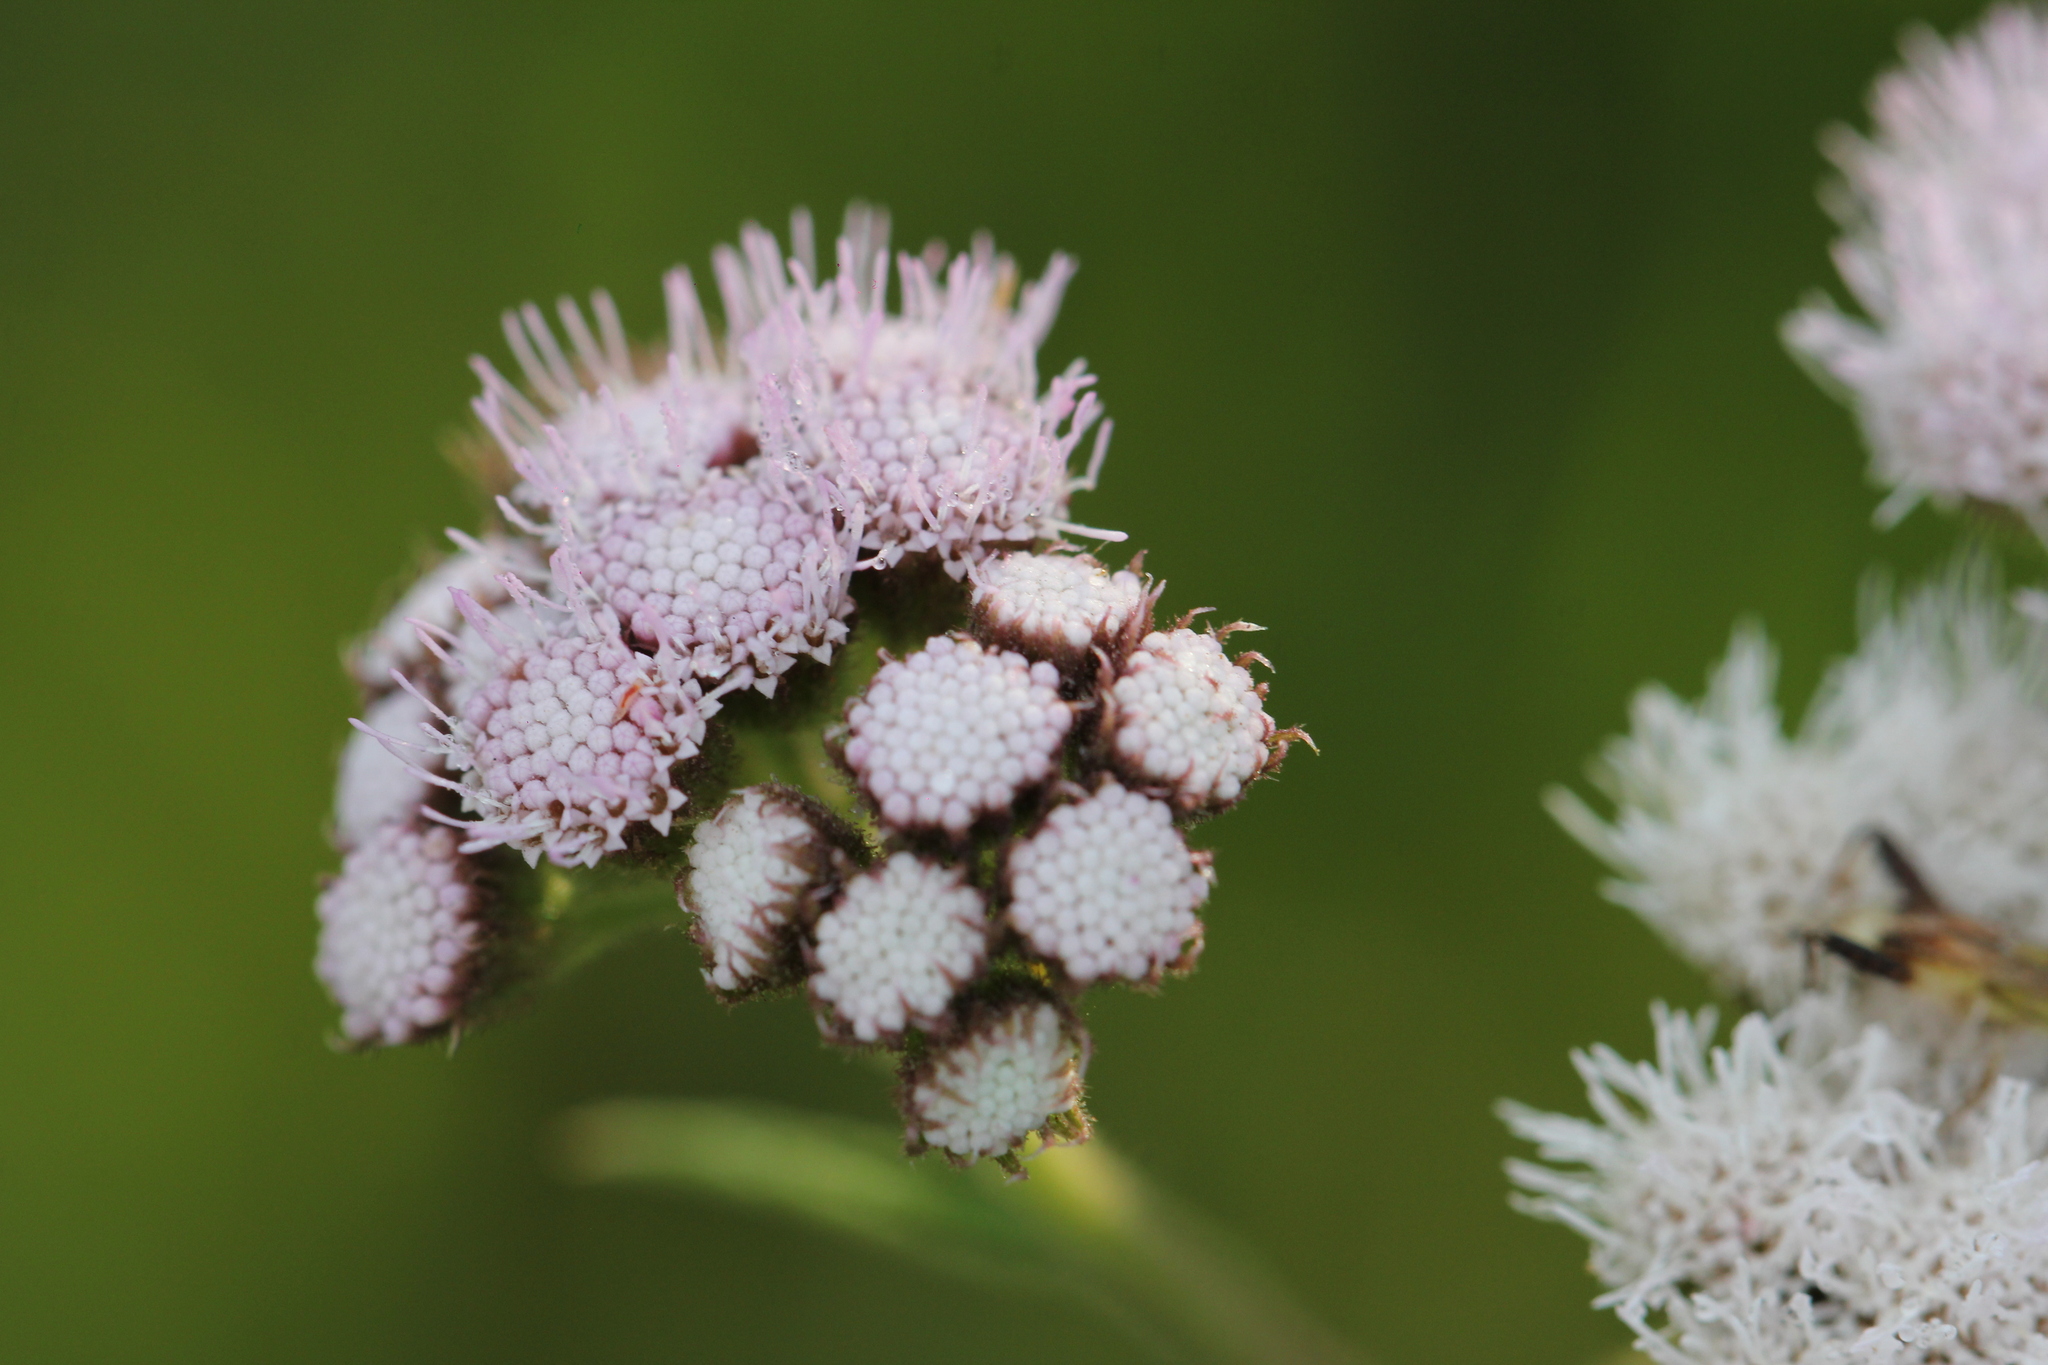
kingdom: Plantae
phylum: Tracheophyta
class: Magnoliopsida
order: Asterales
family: Asteraceae
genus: Barrosoa
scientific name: Barrosoa candolleana
